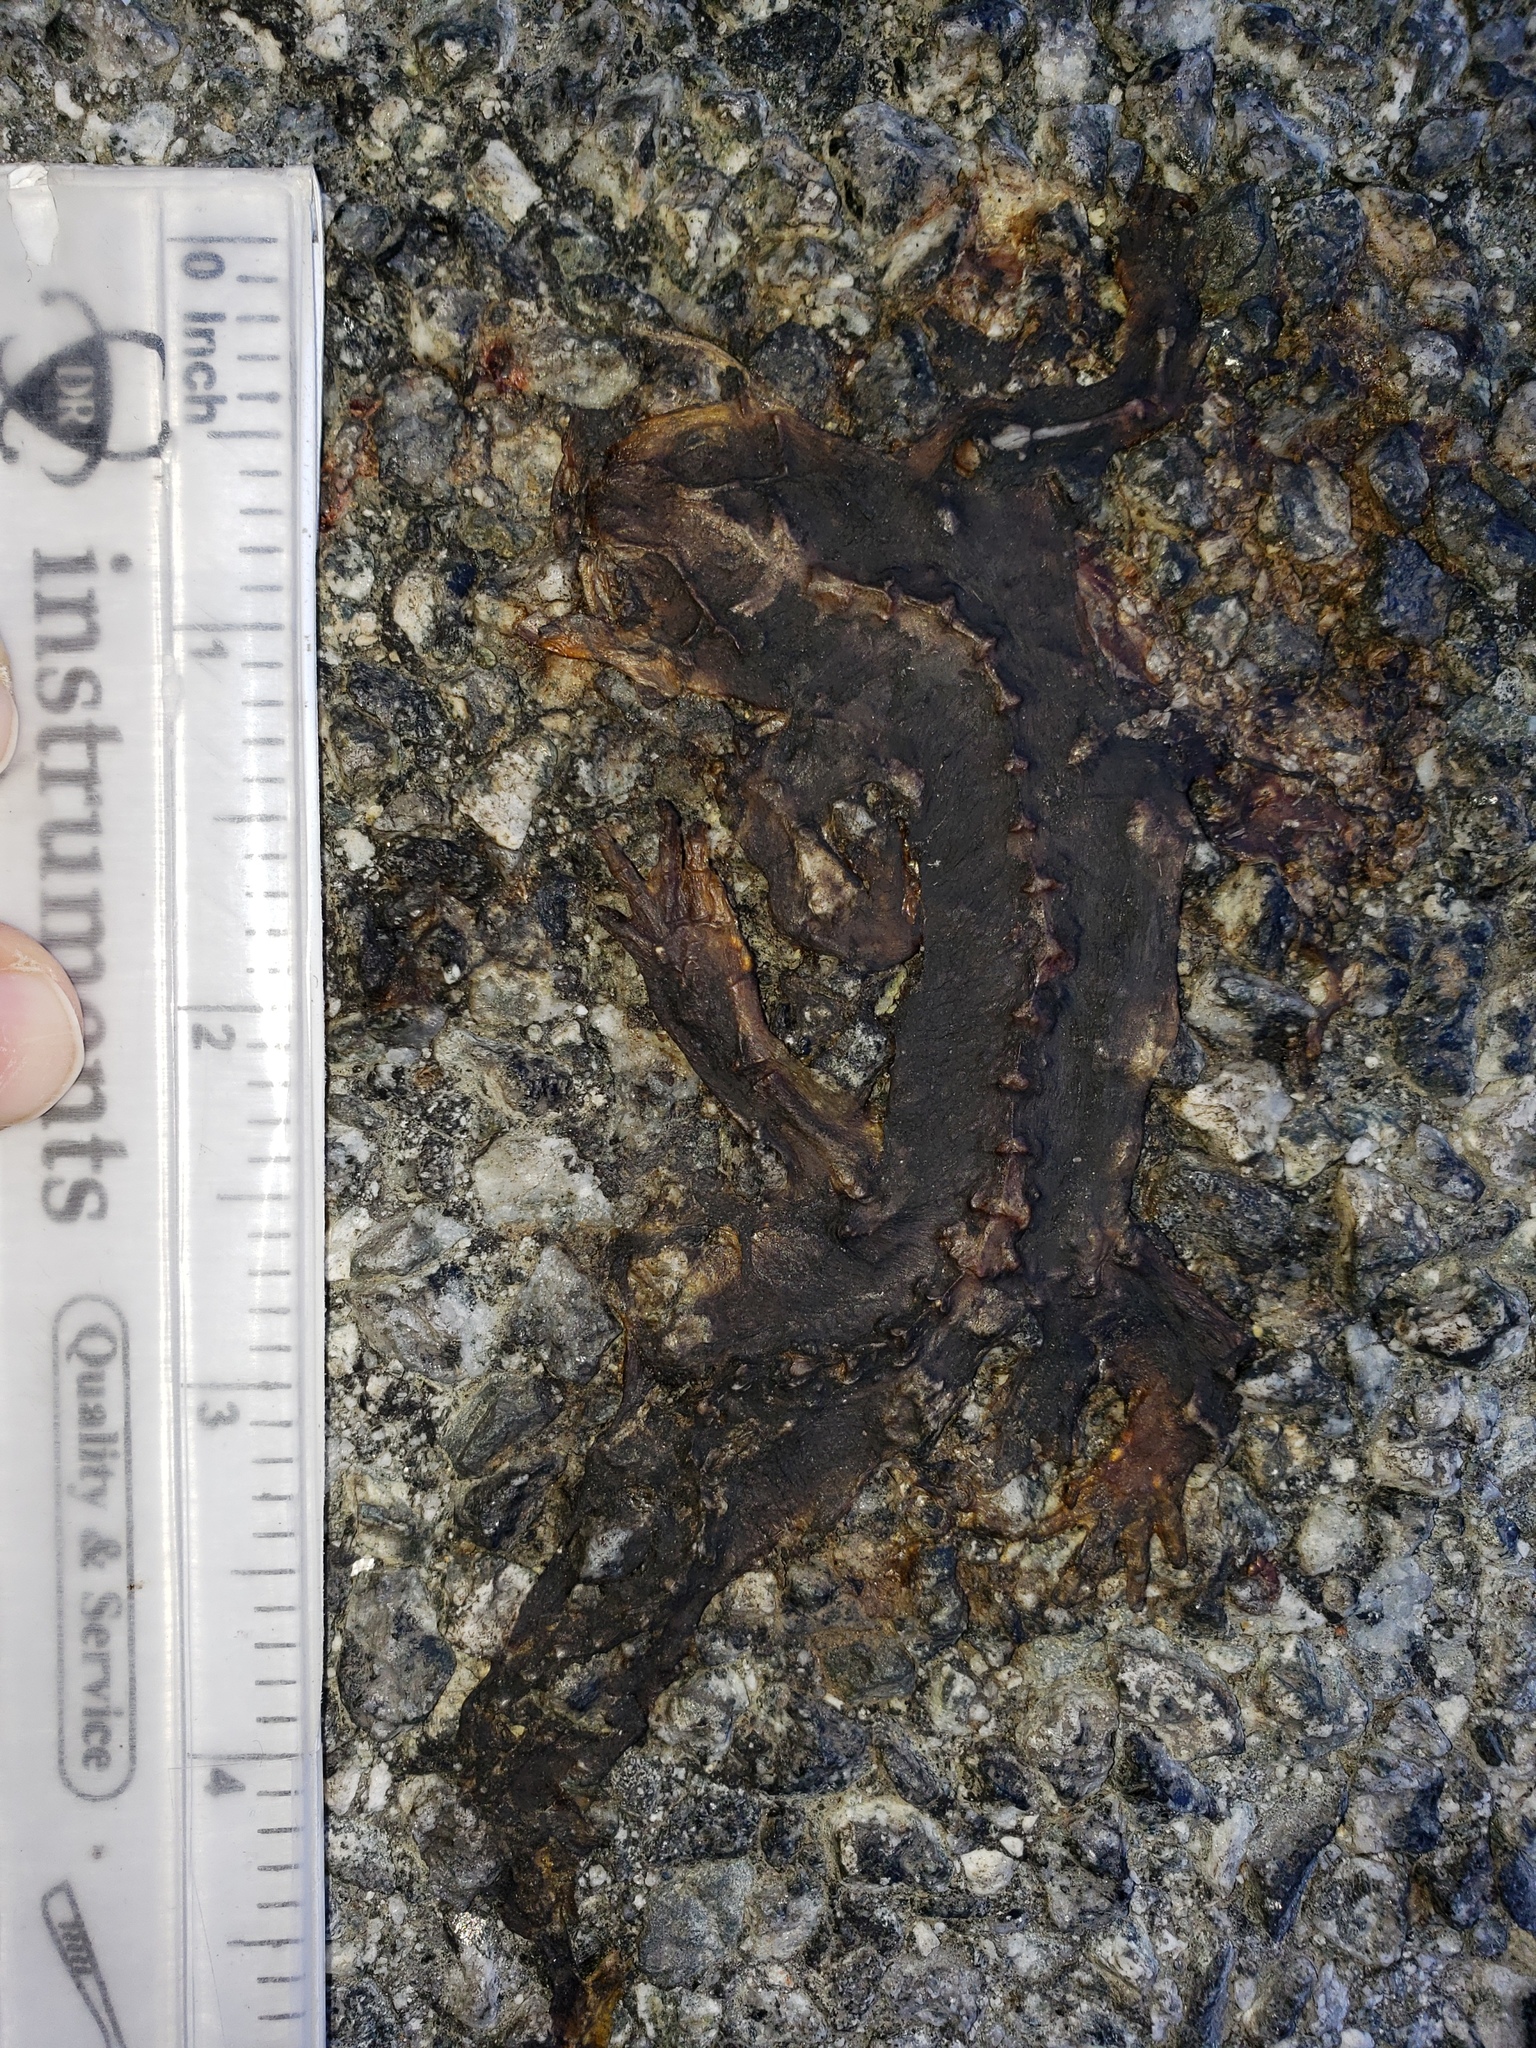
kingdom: Animalia
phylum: Chordata
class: Amphibia
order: Caudata
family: Salamandridae
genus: Taricha
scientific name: Taricha
